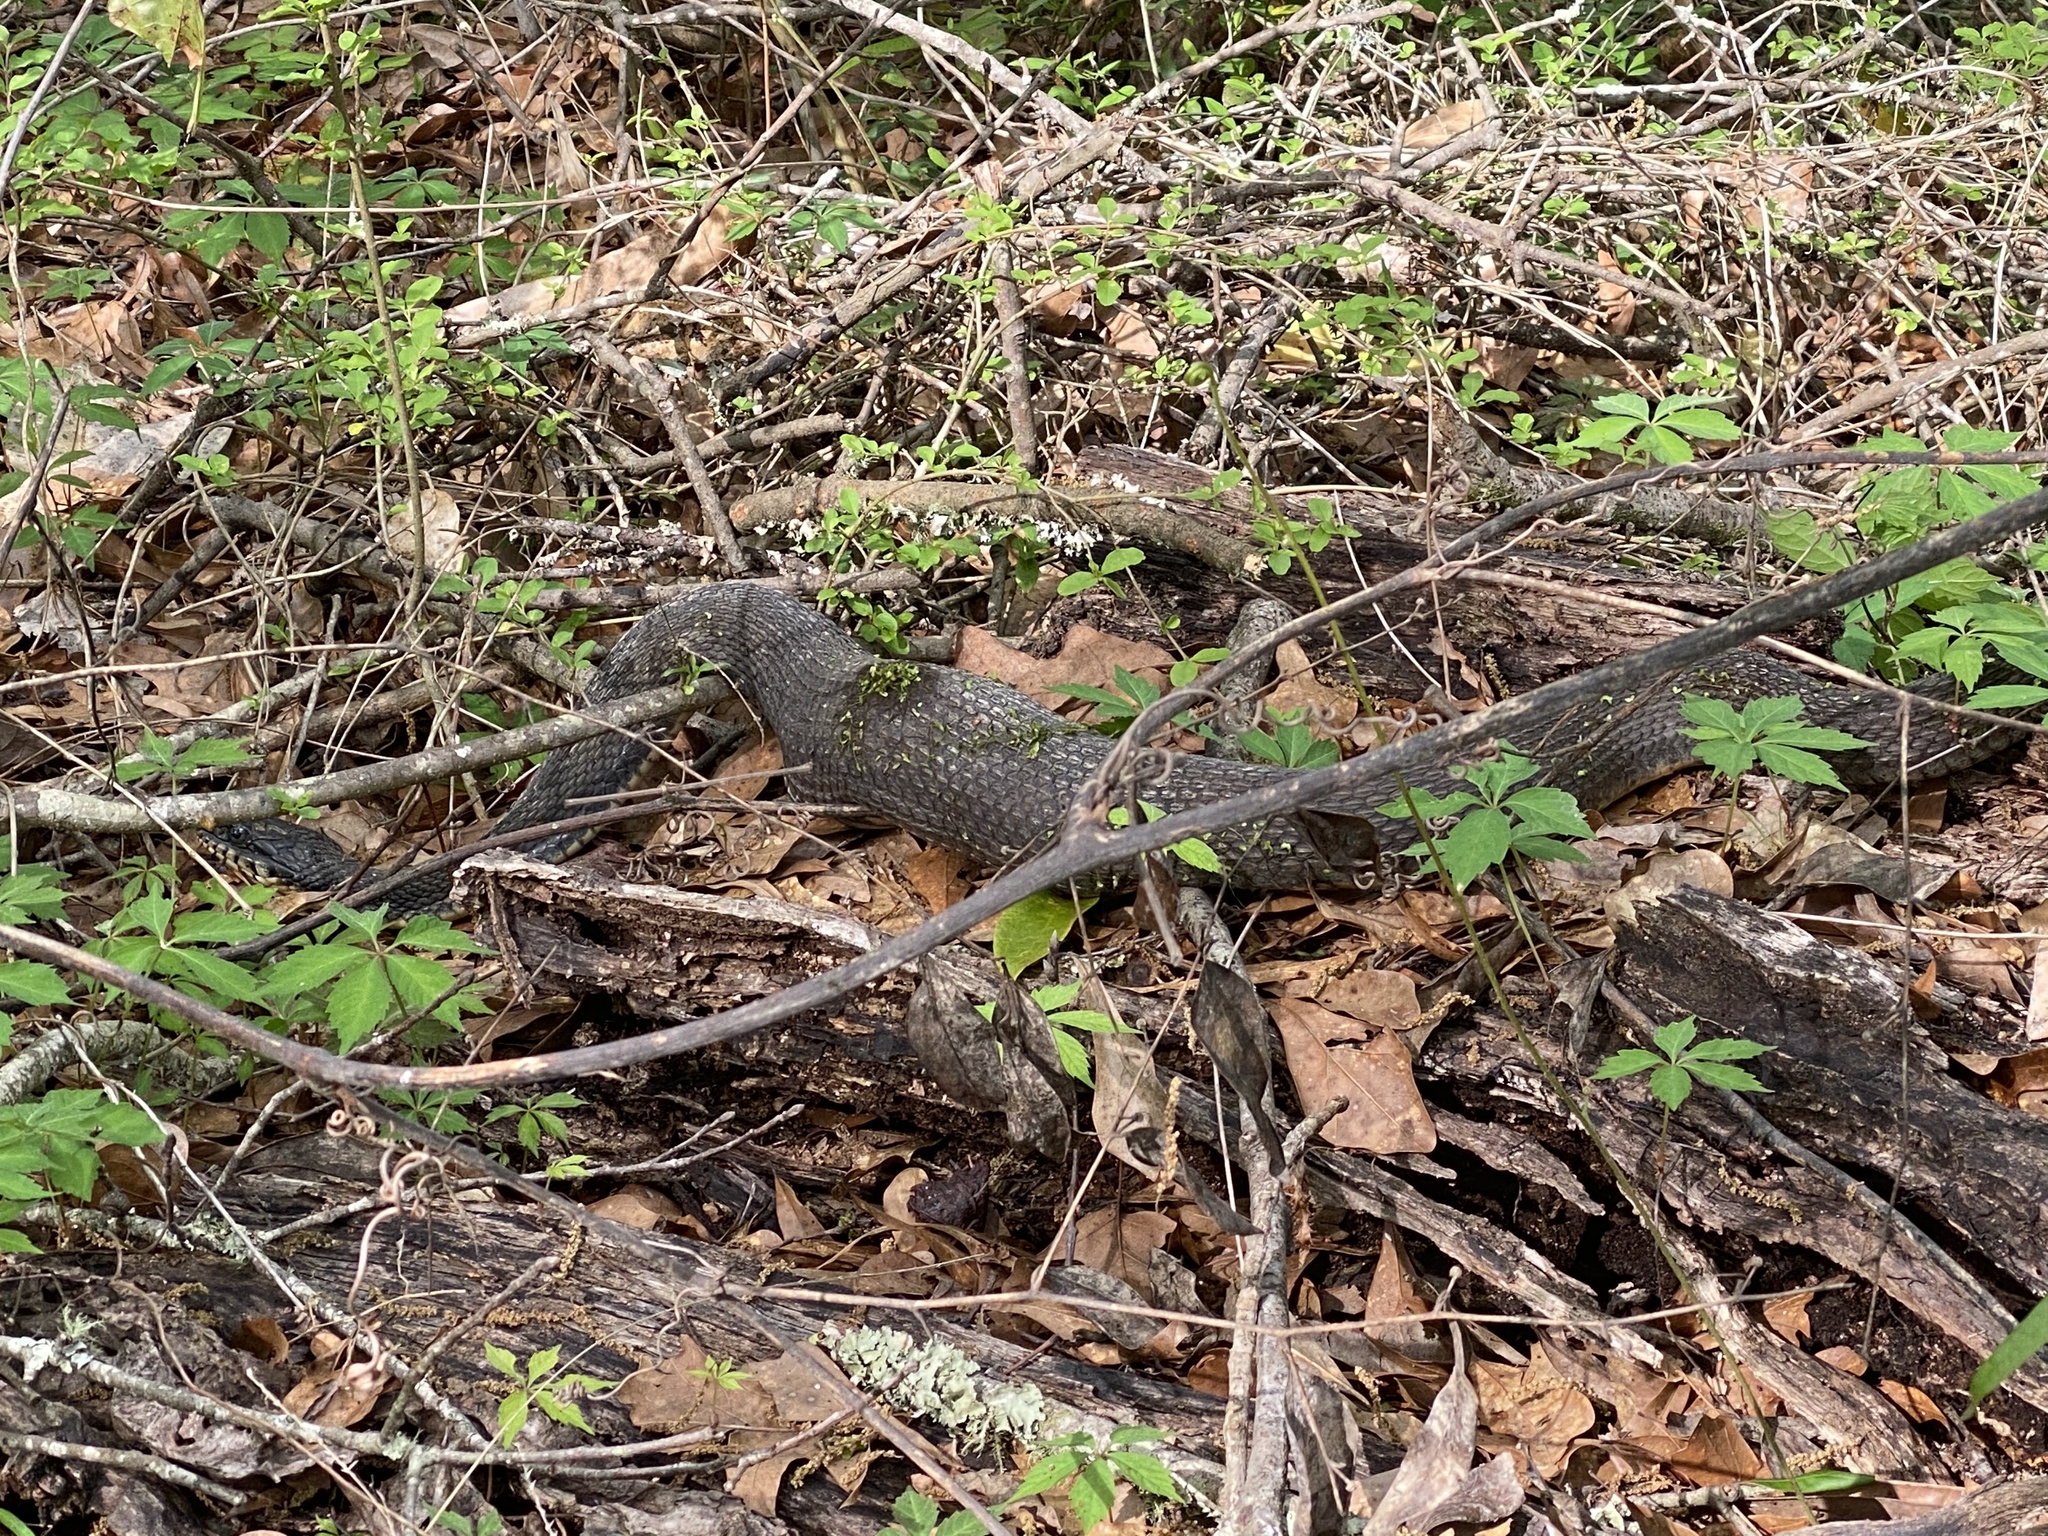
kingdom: Animalia
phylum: Chordata
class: Squamata
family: Colubridae
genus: Nerodia
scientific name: Nerodia erythrogaster
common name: Plainbelly water snake
